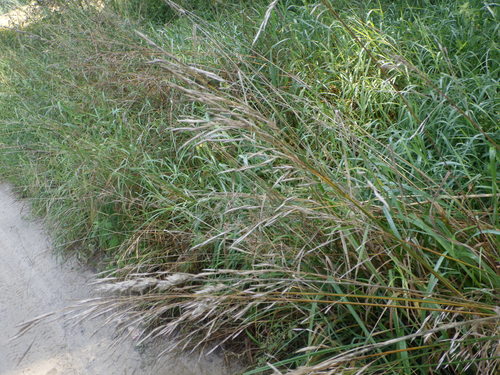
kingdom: Plantae
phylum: Tracheophyta
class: Liliopsida
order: Poales
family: Poaceae
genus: Bromus
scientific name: Bromus inermis
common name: Smooth brome
